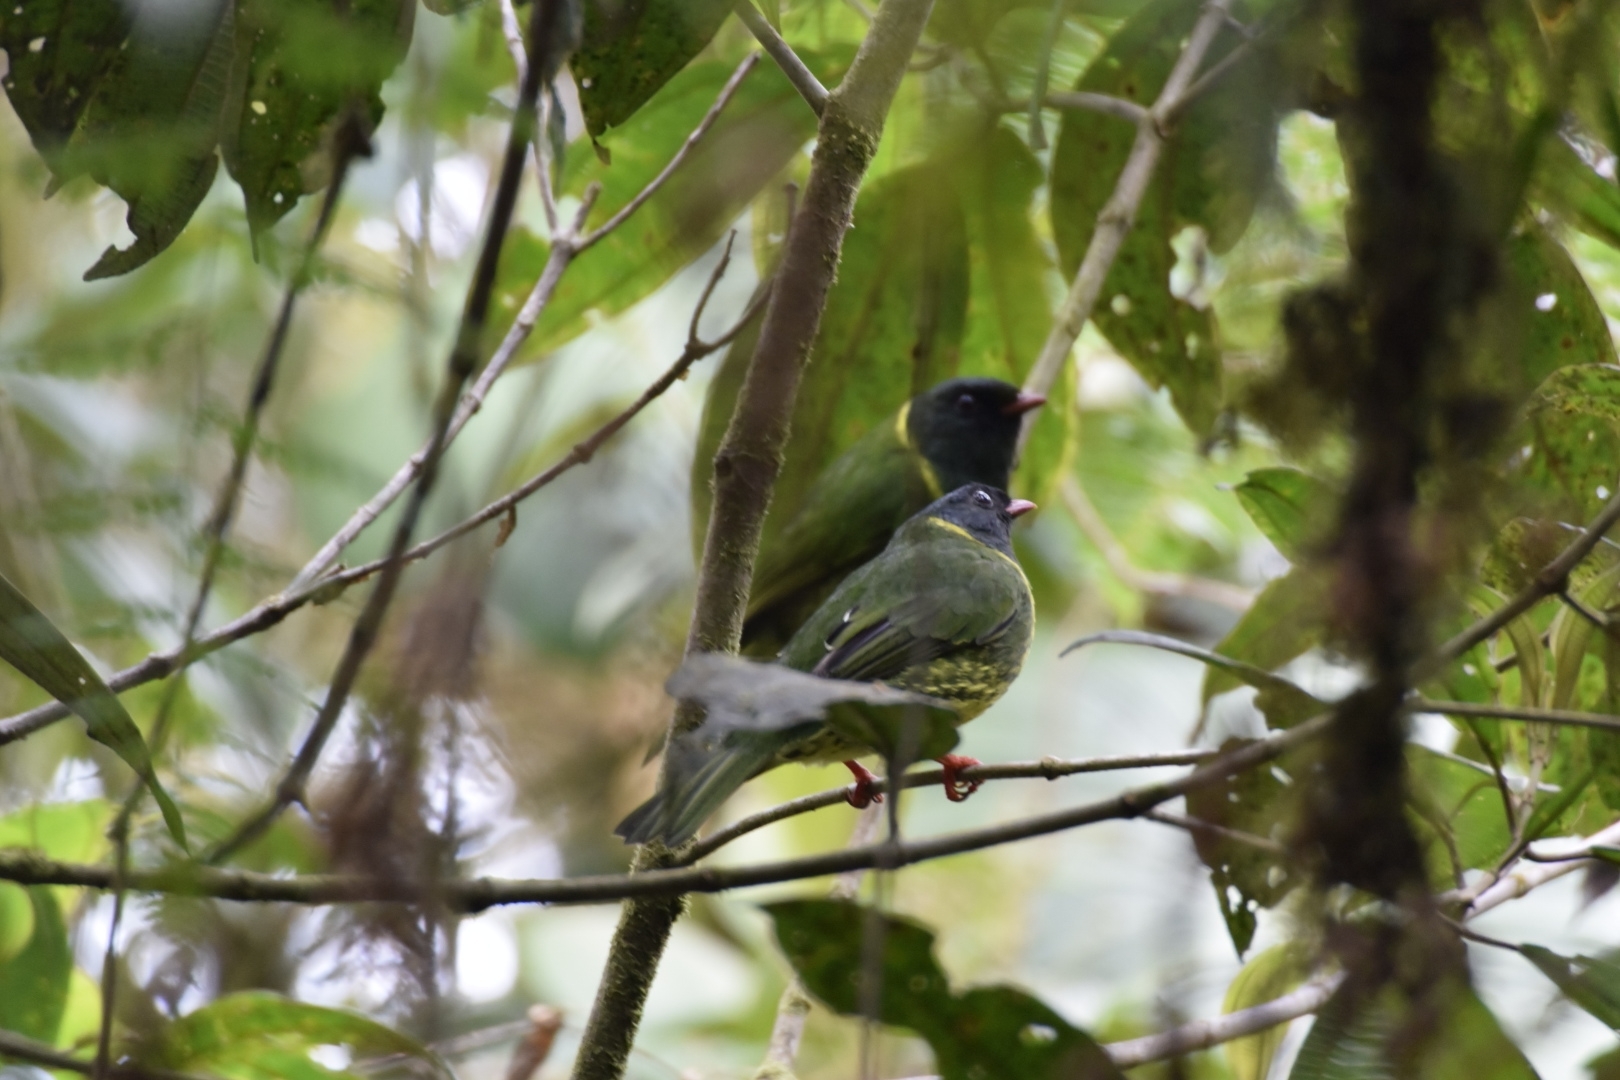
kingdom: Animalia
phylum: Chordata
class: Aves
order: Passeriformes
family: Cotingidae
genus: Pipreola
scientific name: Pipreola riefferii
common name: Green-and-black fruiteater
